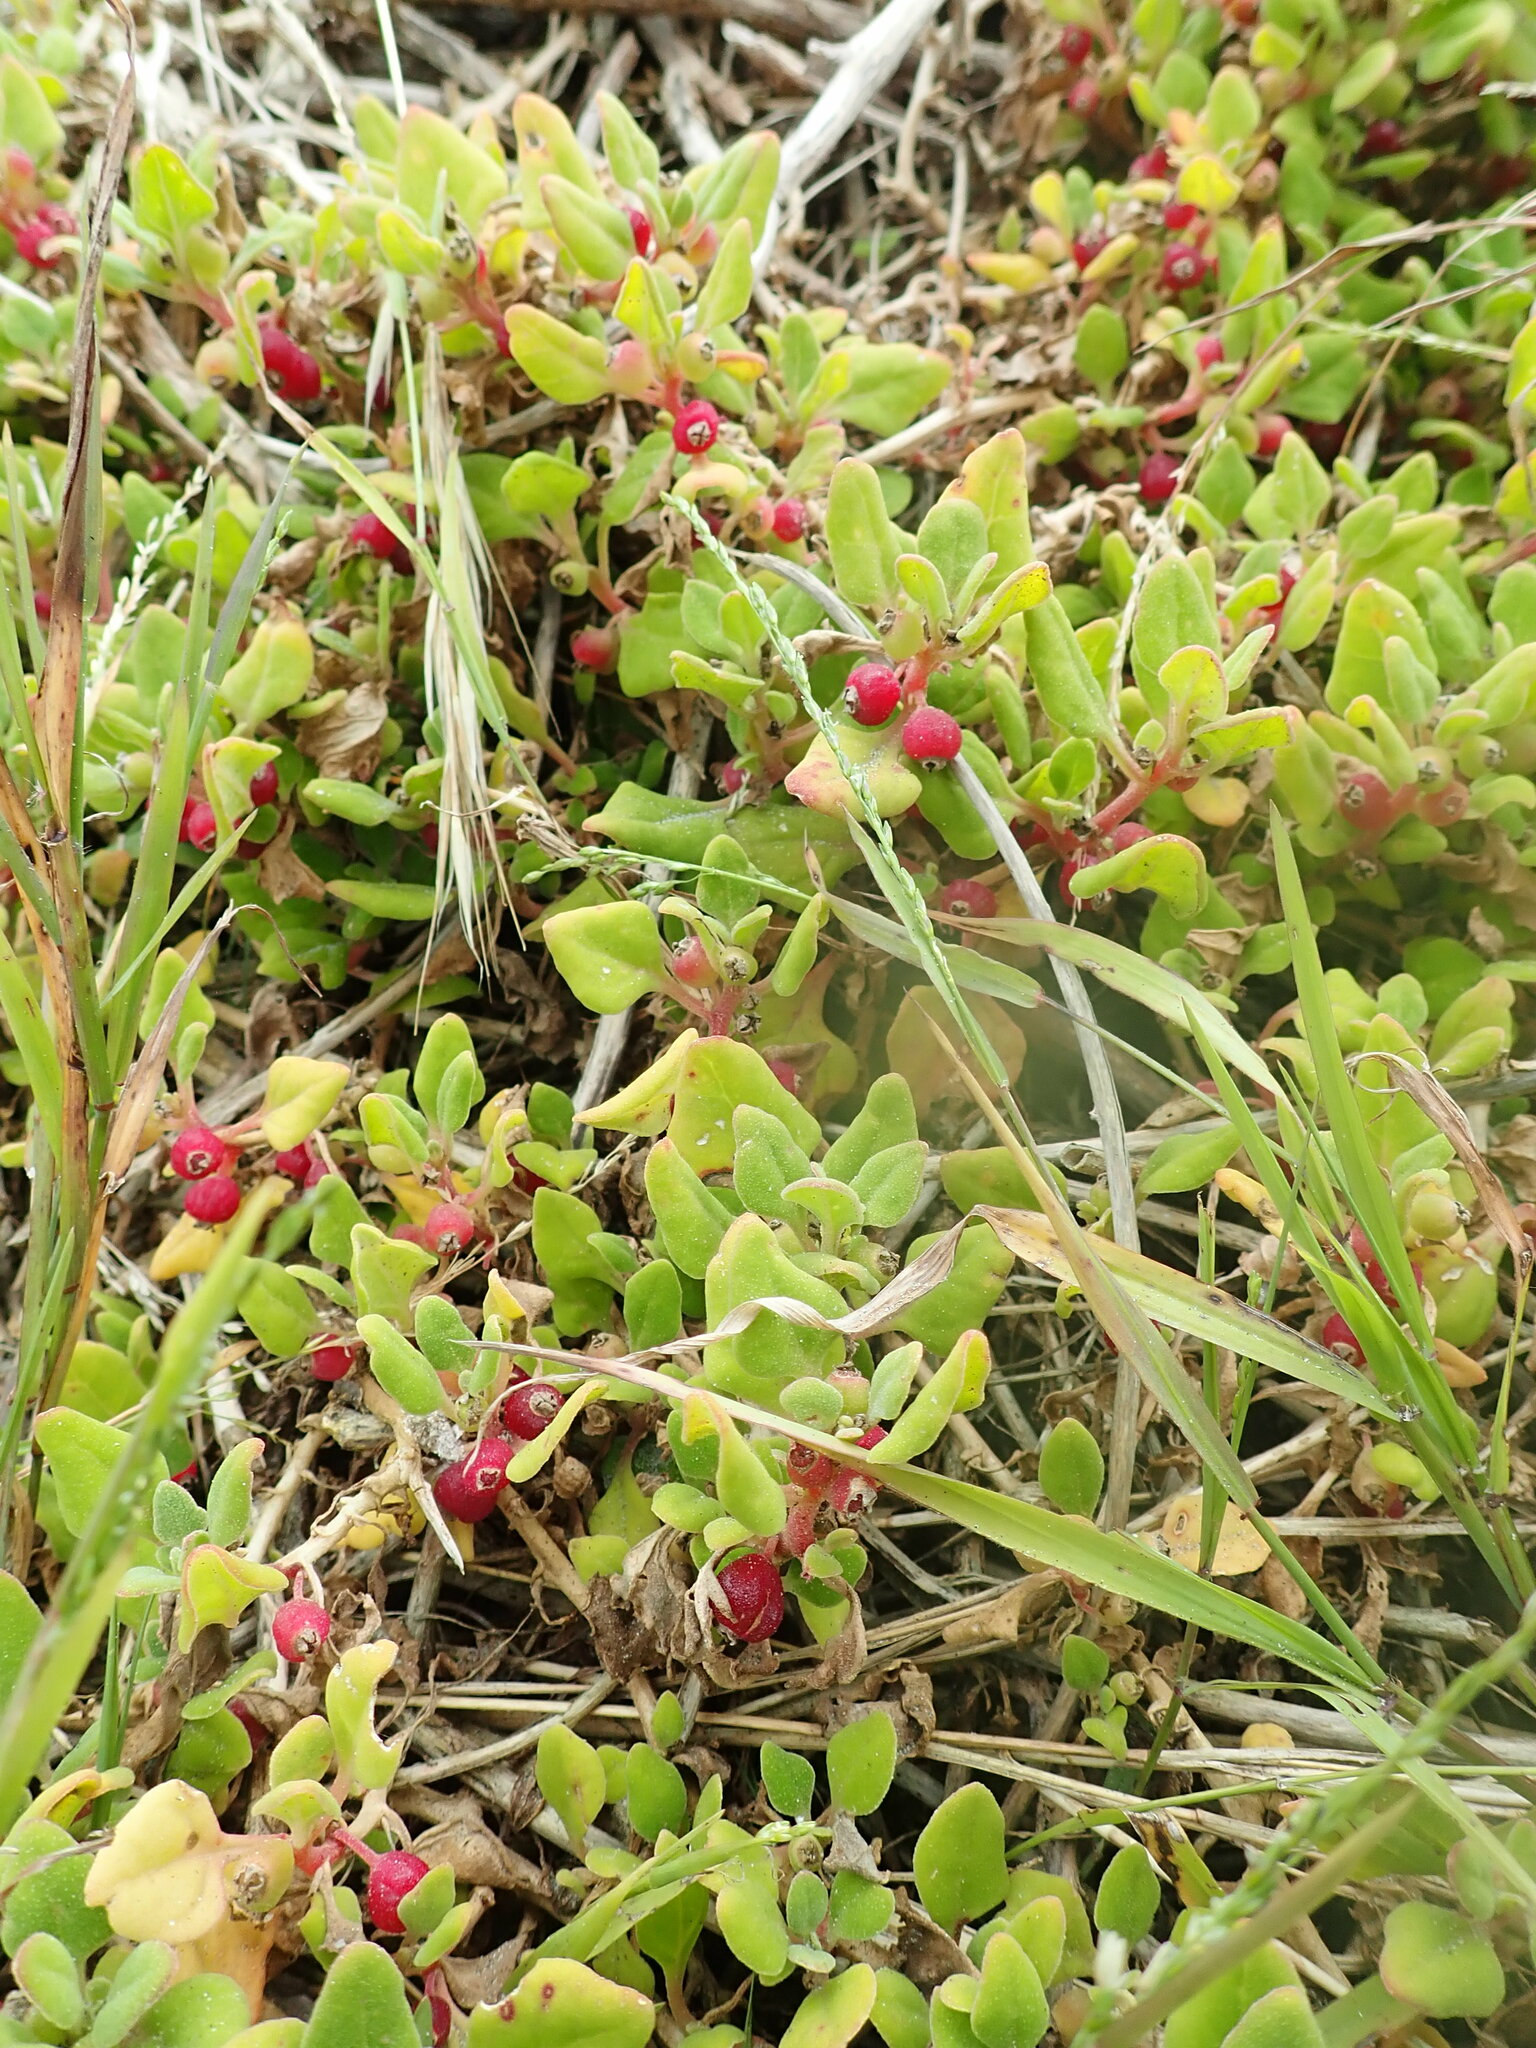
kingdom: Plantae
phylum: Tracheophyta
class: Magnoliopsida
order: Caryophyllales
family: Aizoaceae
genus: Tetragonia
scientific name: Tetragonia implexicoma
